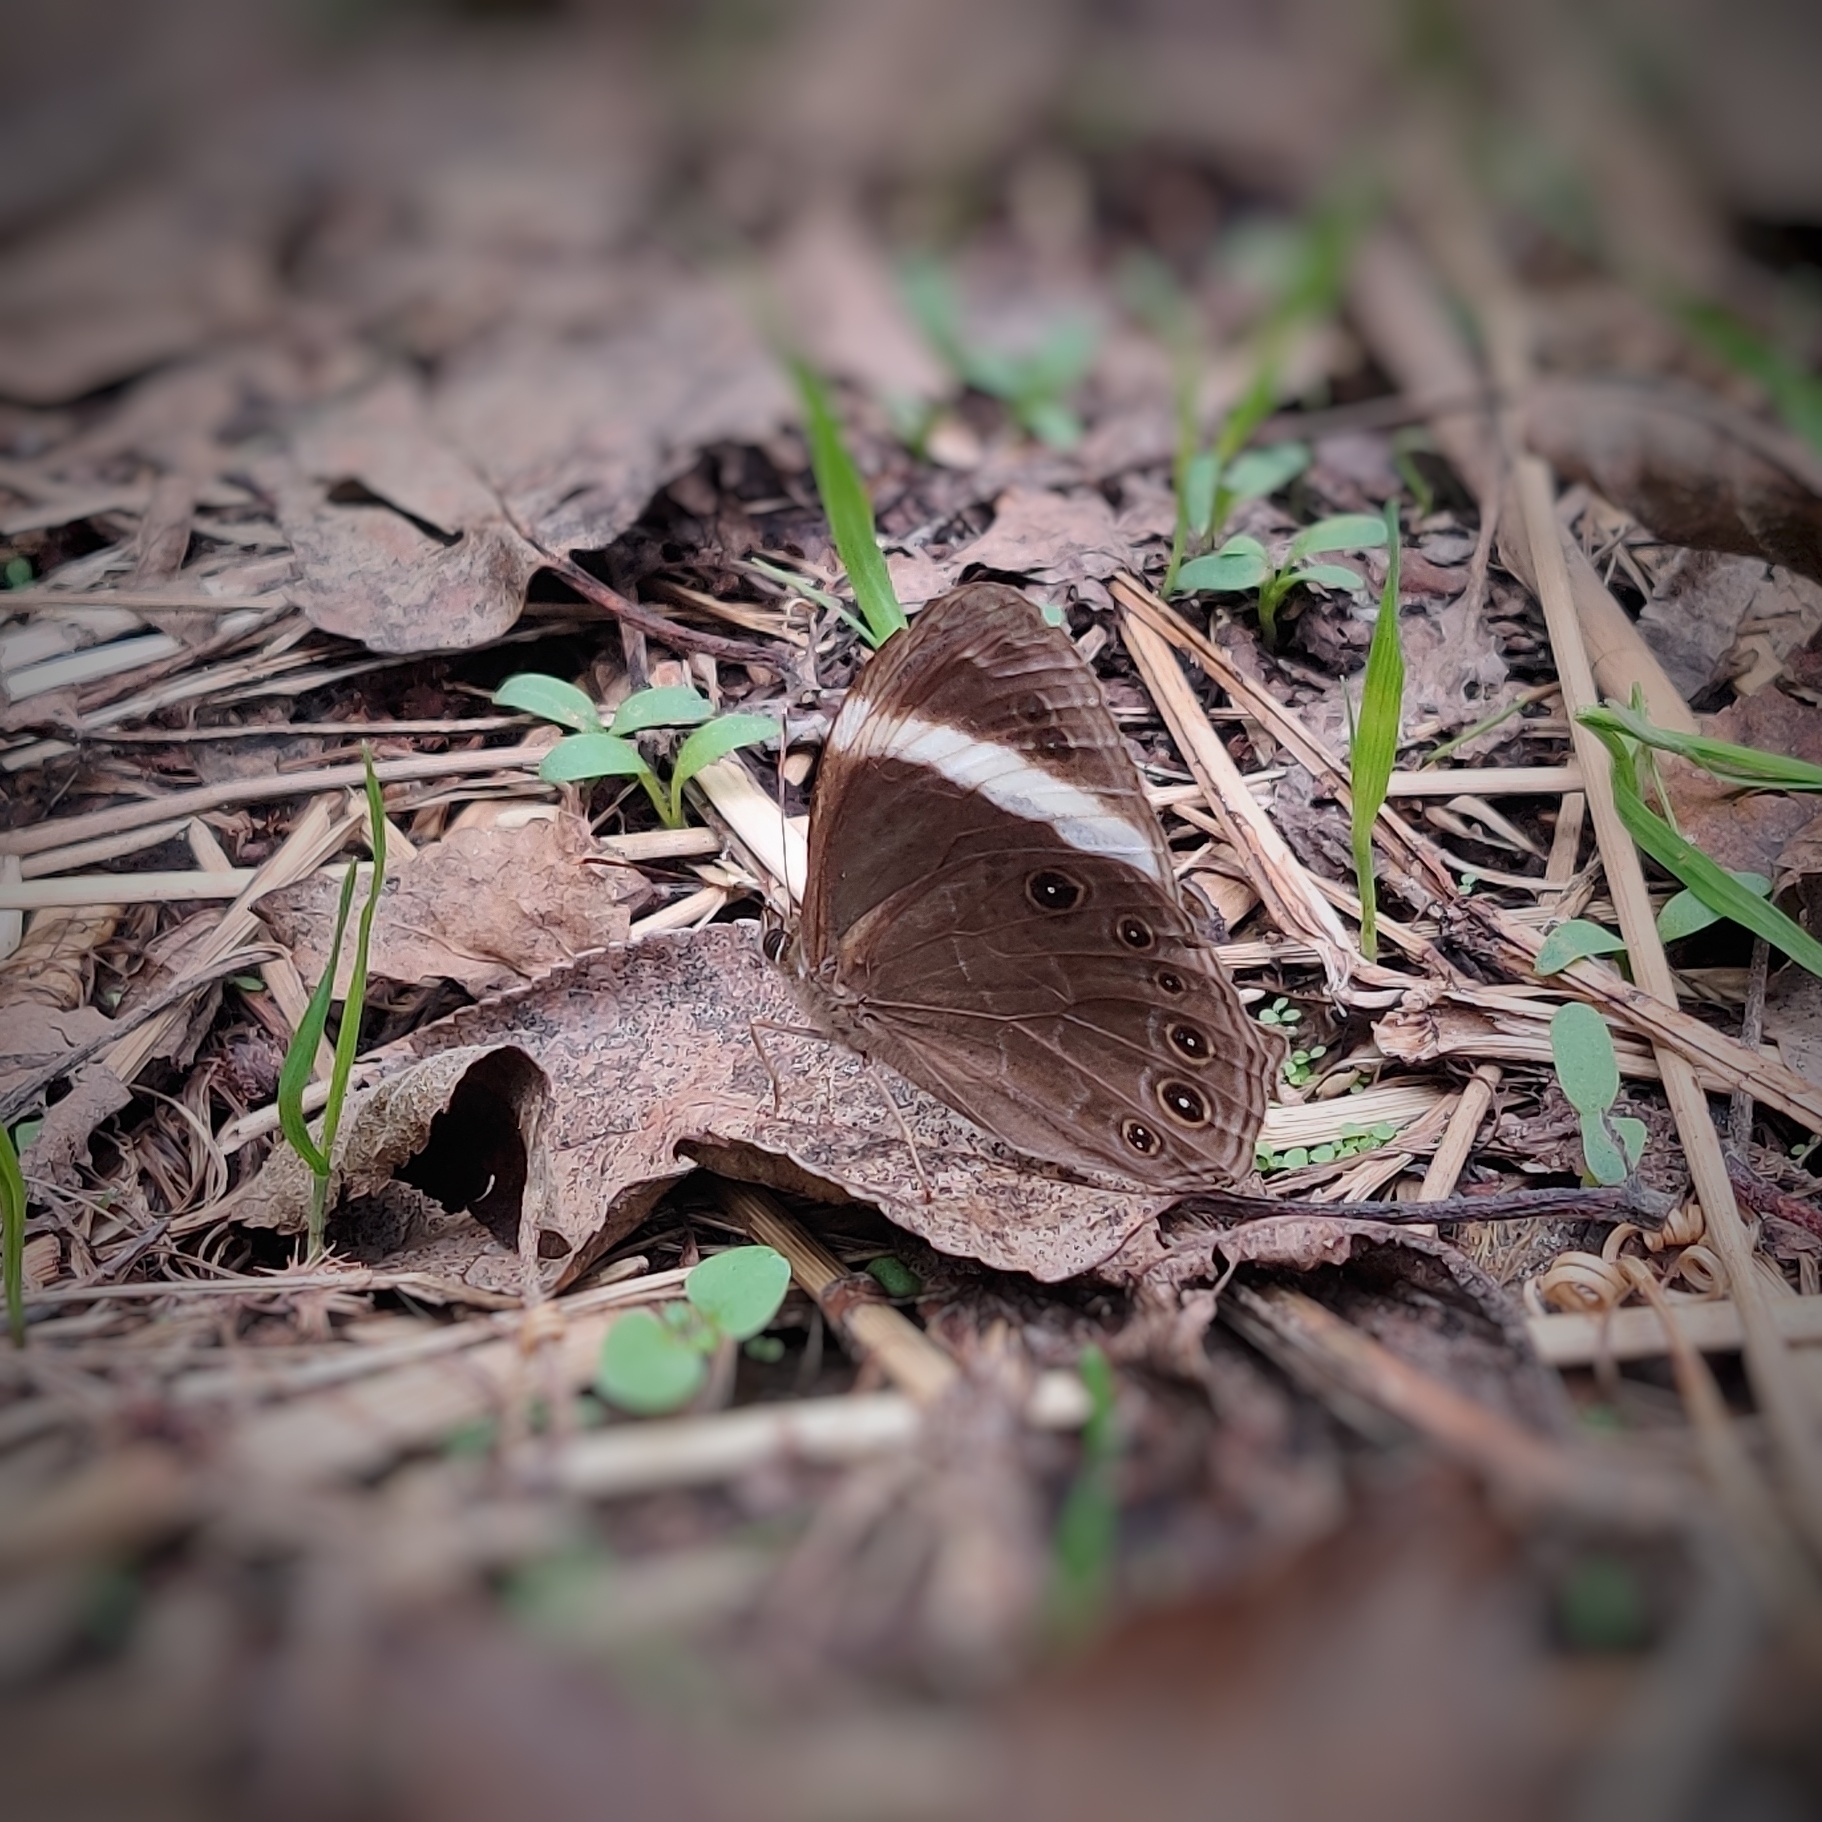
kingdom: Animalia
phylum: Arthropoda
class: Insecta
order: Lepidoptera
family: Nymphalidae
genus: Lethe
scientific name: Lethe verma
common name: Straight-banded treebrown
